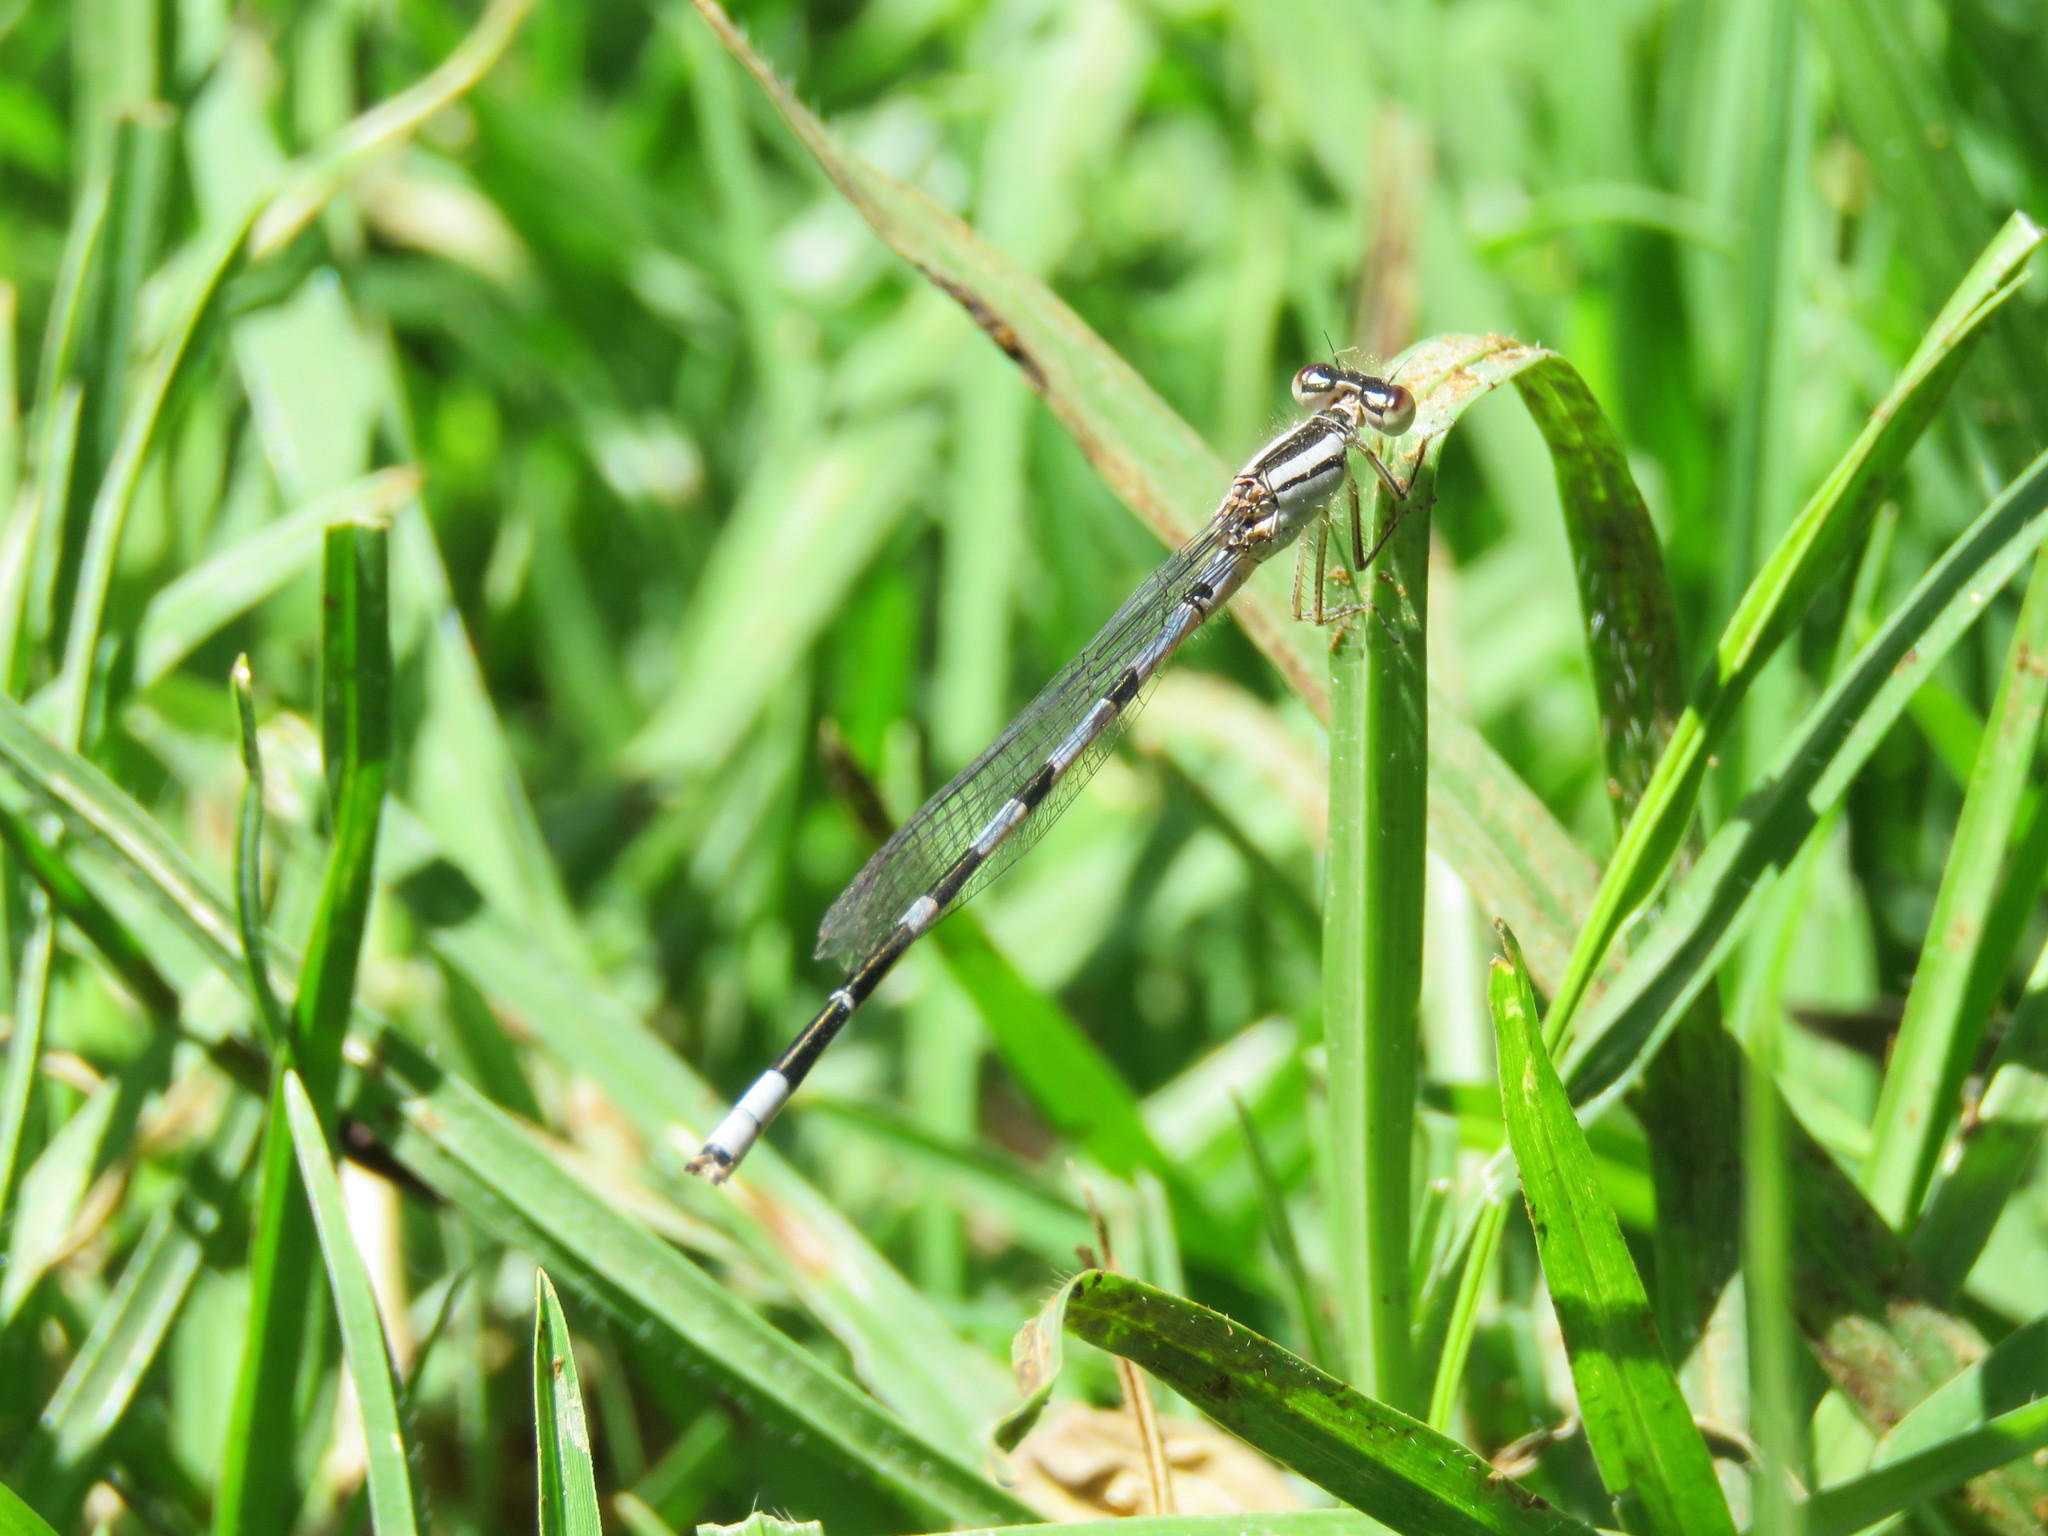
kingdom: Animalia
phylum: Arthropoda
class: Insecta
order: Odonata
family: Coenagrionidae
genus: Enallagma
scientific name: Enallagma civile
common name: Damselfly
